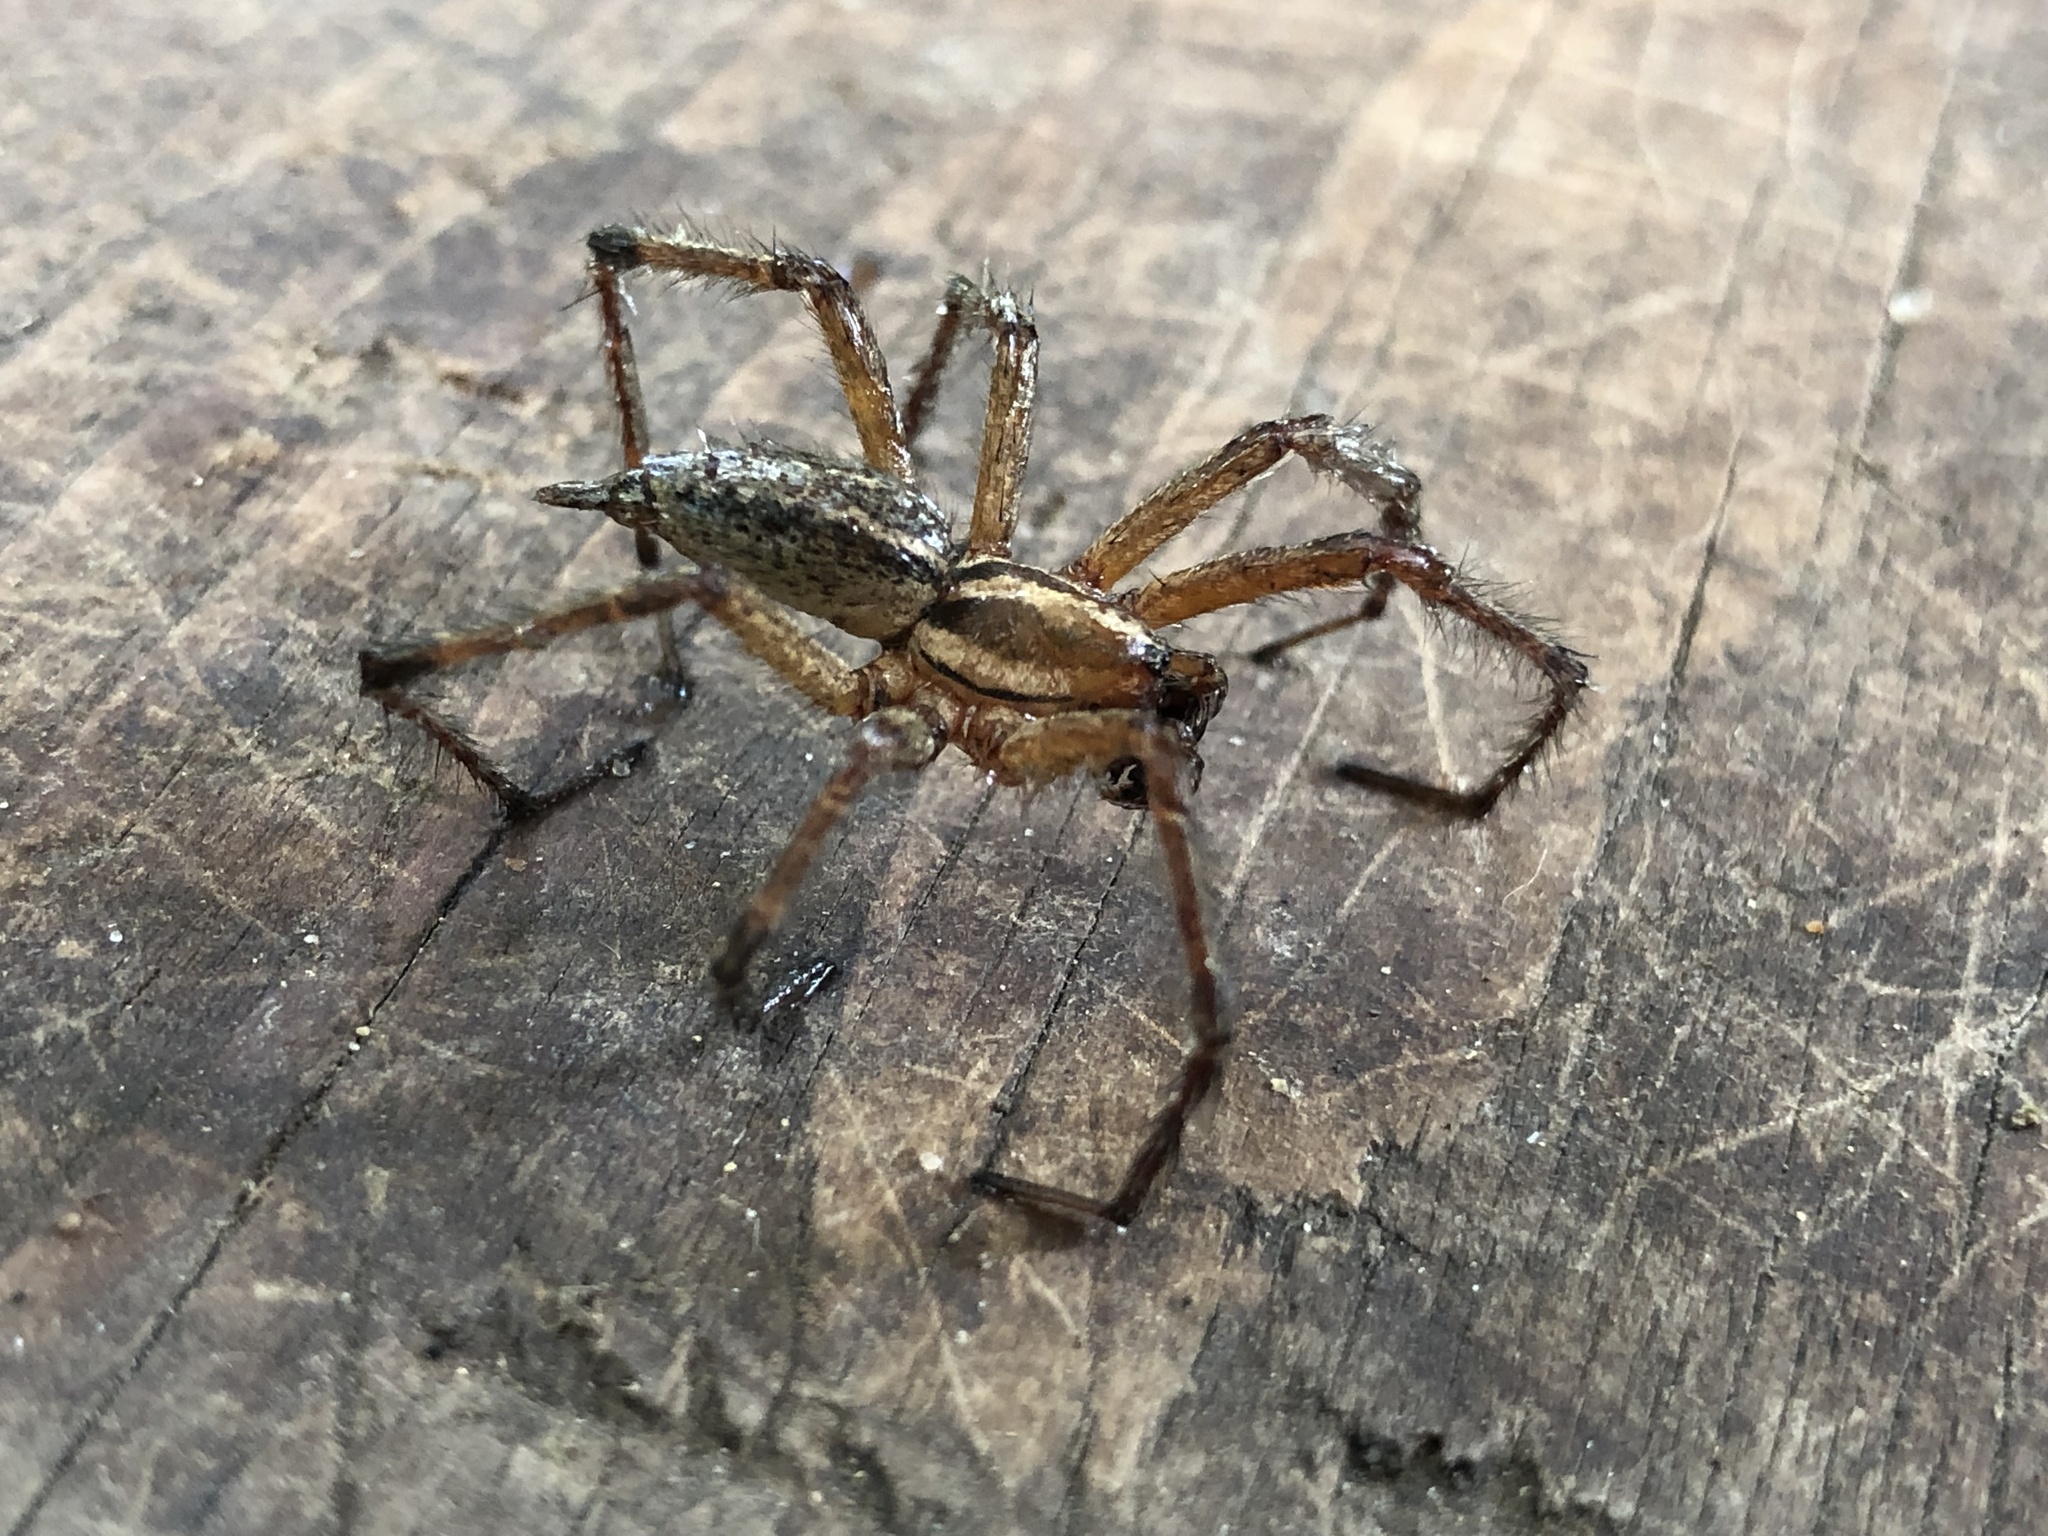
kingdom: Animalia
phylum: Arthropoda
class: Arachnida
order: Araneae
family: Agelenidae
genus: Agelenopsis
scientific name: Agelenopsis
